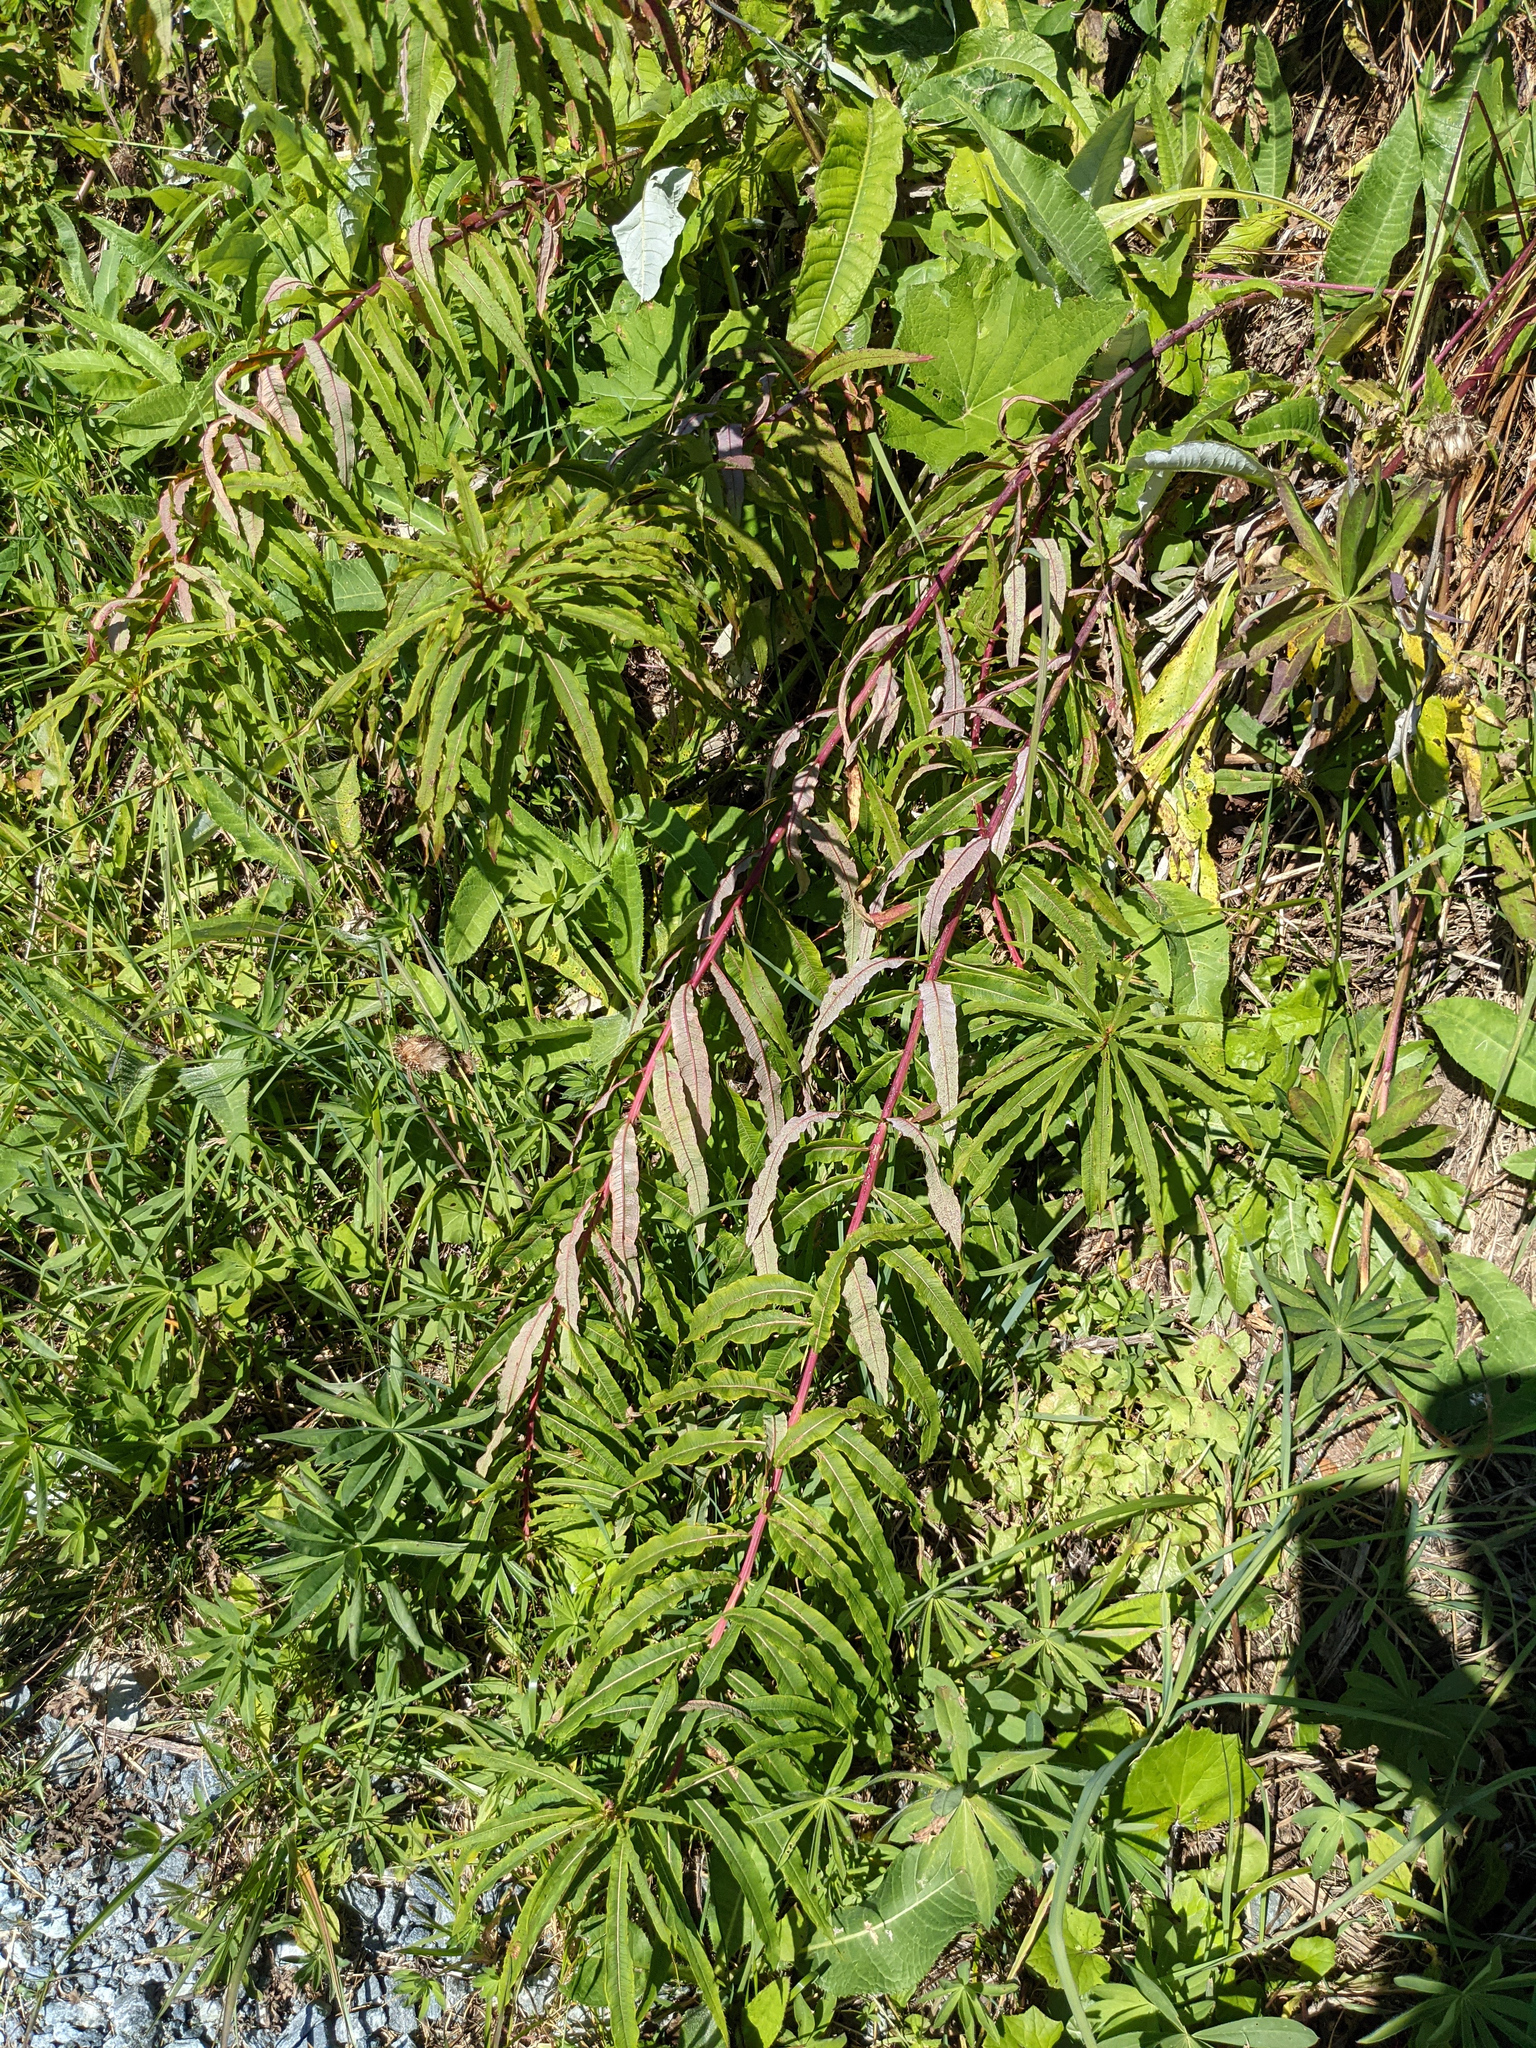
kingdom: Plantae
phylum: Tracheophyta
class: Magnoliopsida
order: Myrtales
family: Onagraceae
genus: Chamaenerion
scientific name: Chamaenerion angustifolium
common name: Fireweed
